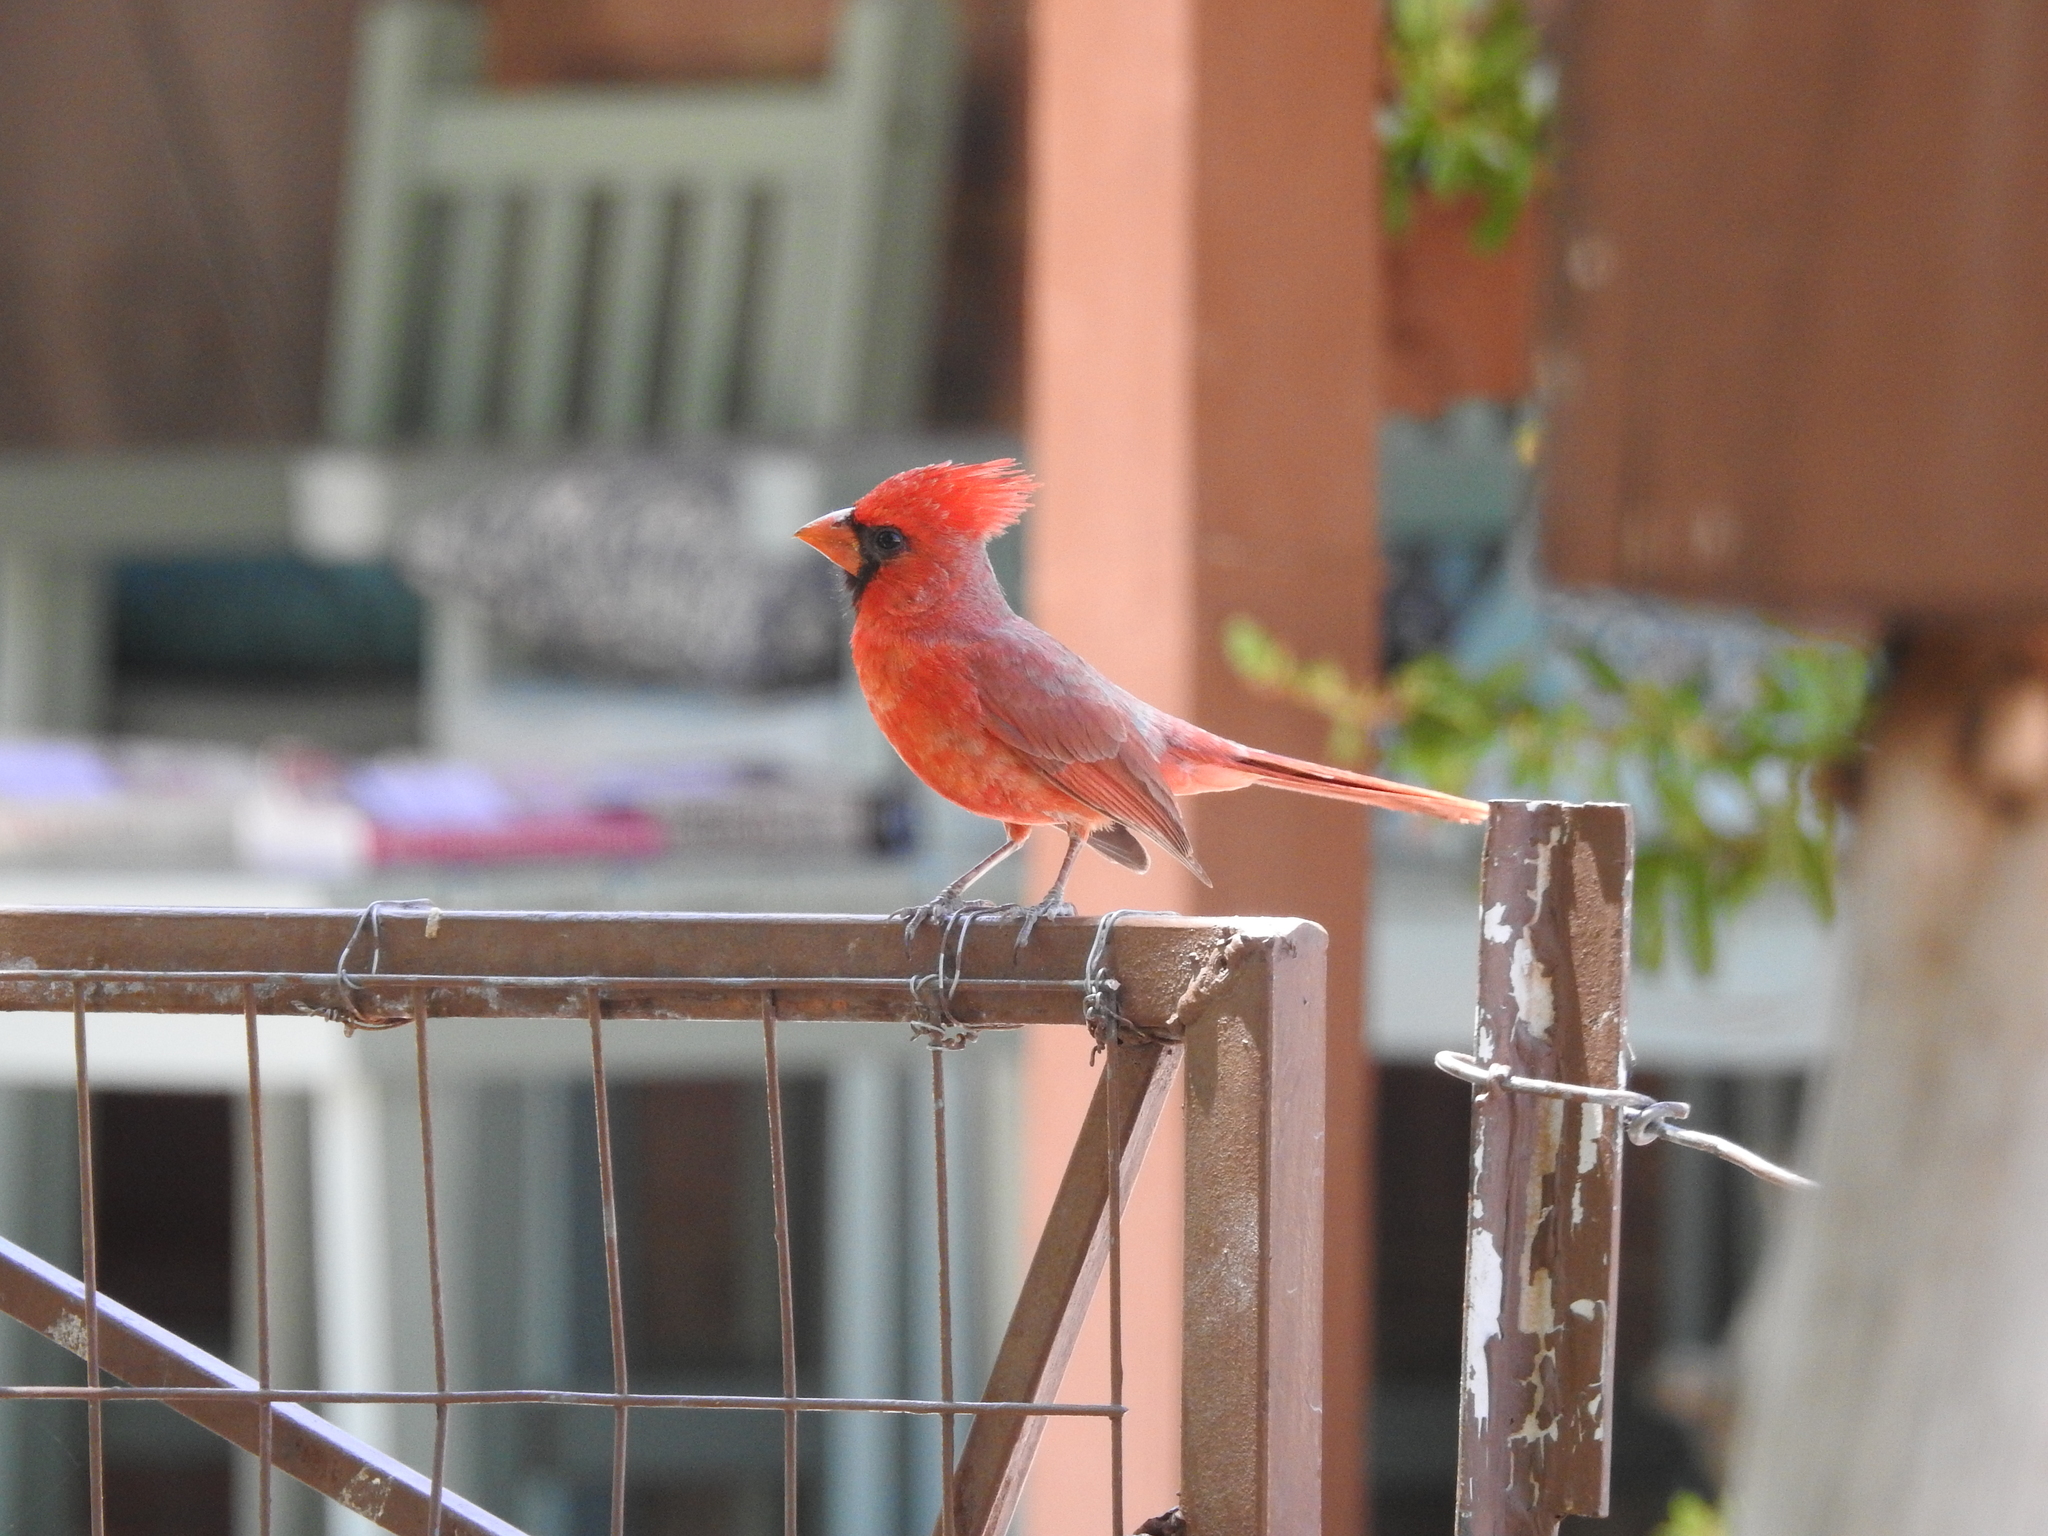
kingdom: Animalia
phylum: Chordata
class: Aves
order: Passeriformes
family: Cardinalidae
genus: Cardinalis
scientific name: Cardinalis cardinalis
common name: Northern cardinal
